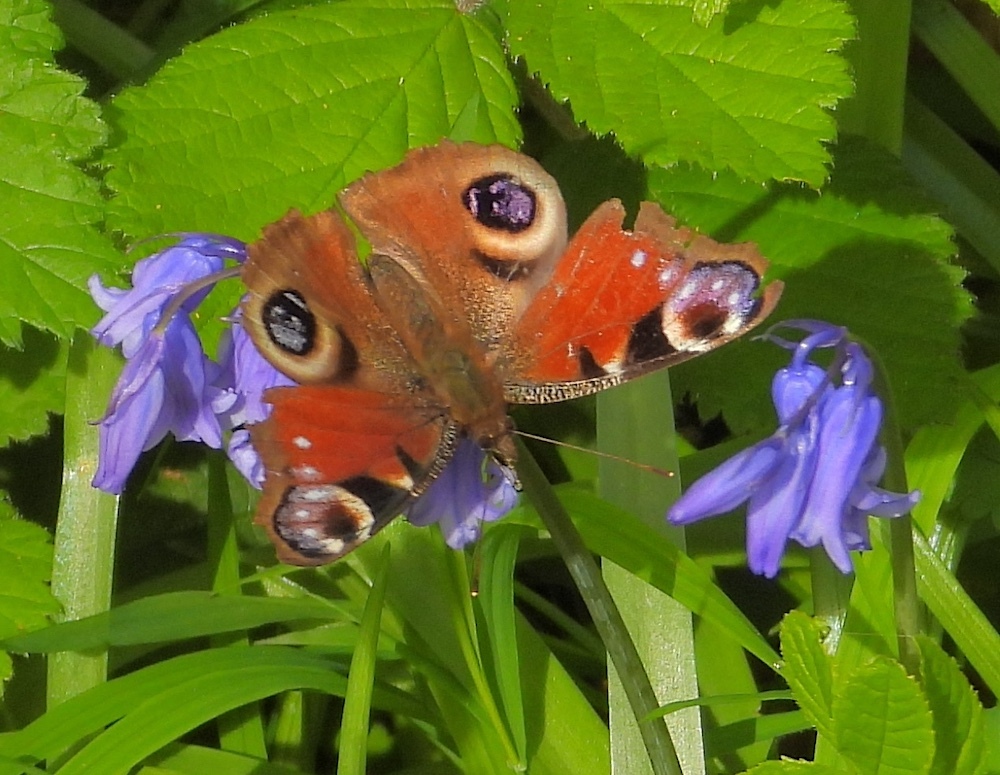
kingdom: Animalia
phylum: Arthropoda
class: Insecta
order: Lepidoptera
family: Nymphalidae
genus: Aglais
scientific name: Aglais io
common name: Peacock
